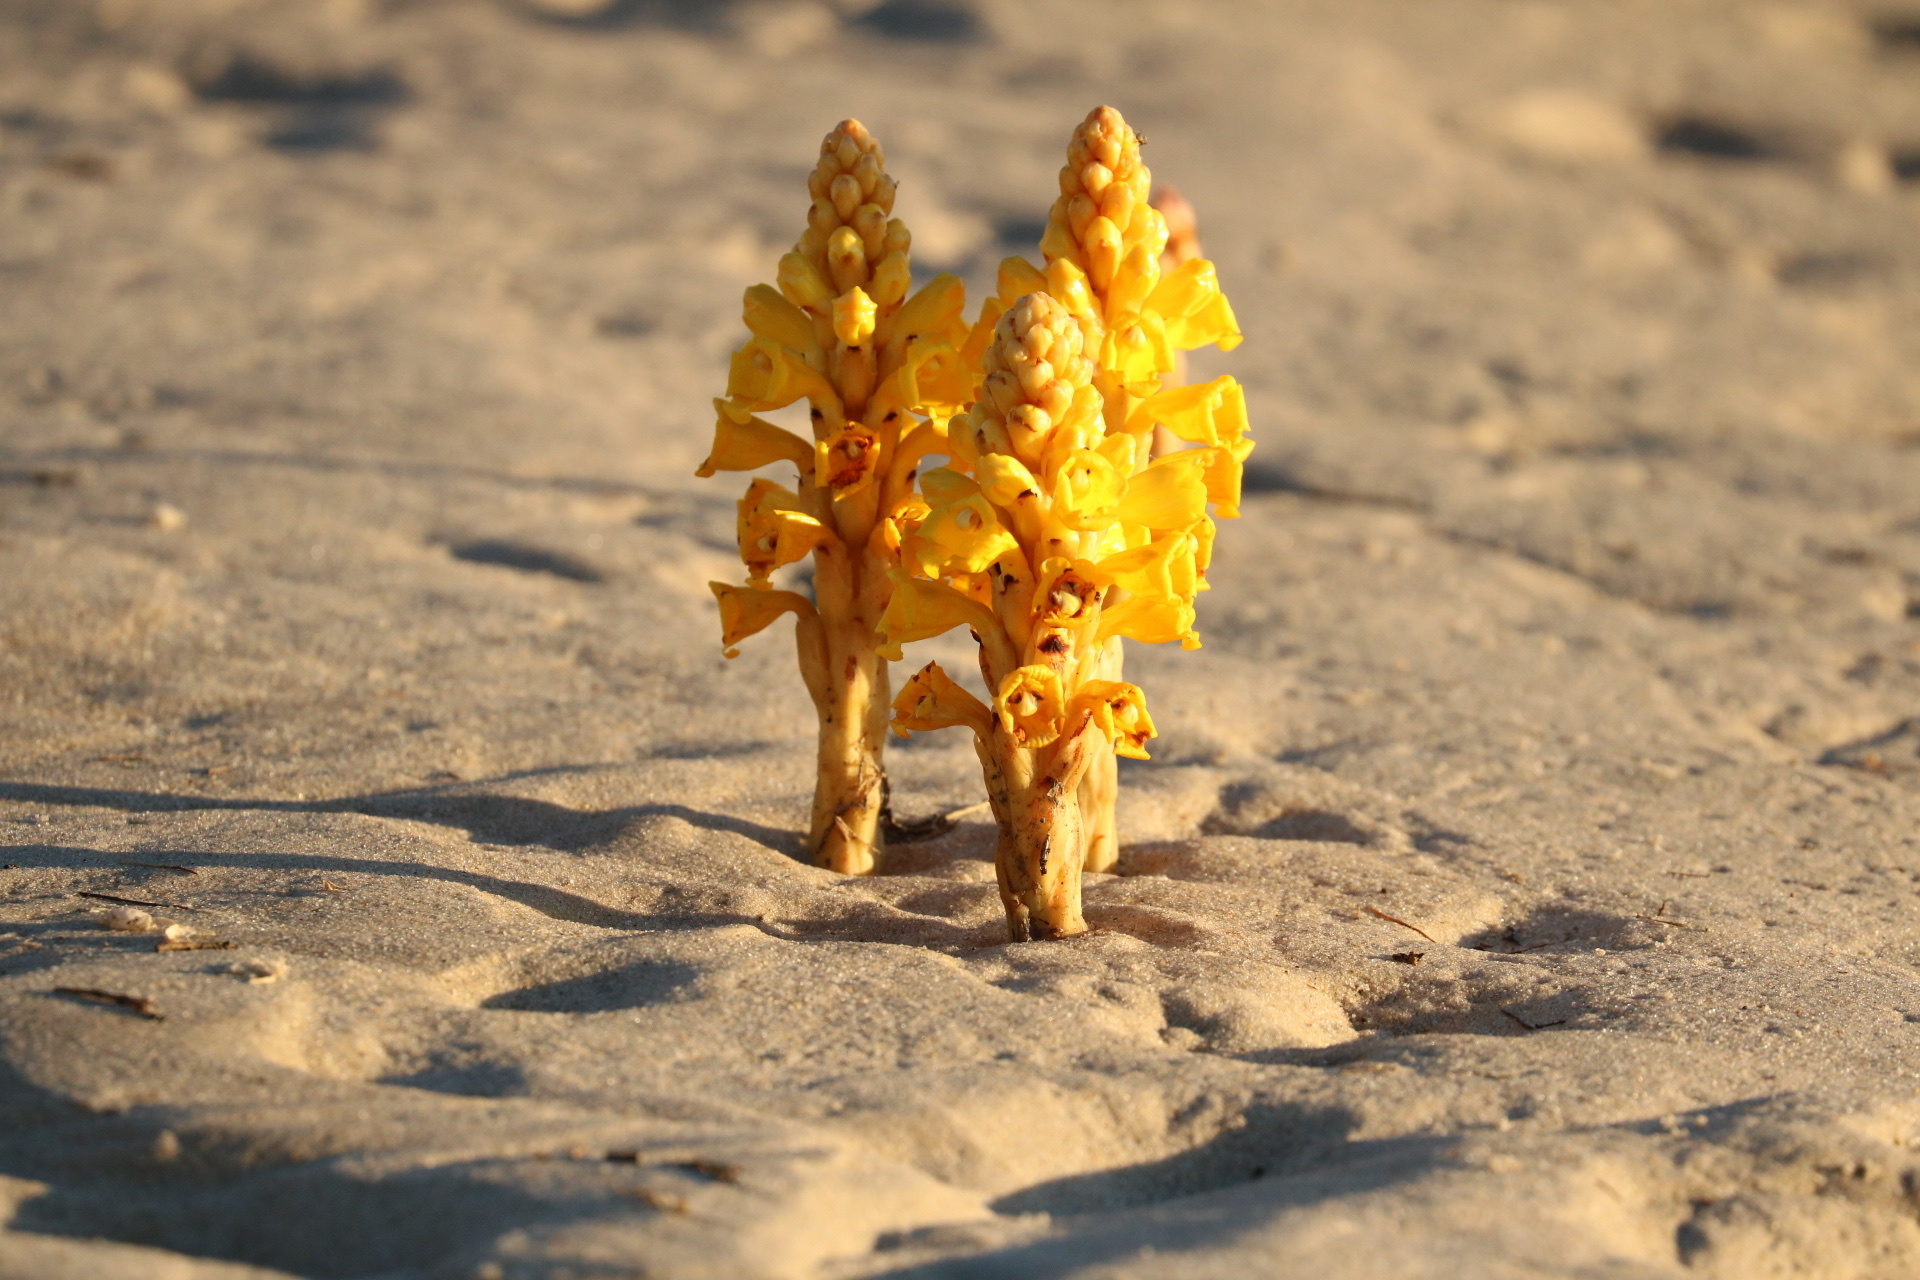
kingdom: Plantae
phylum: Tracheophyta
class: Magnoliopsida
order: Lamiales
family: Orobanchaceae
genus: Cistanche
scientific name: Cistanche phelypaea
